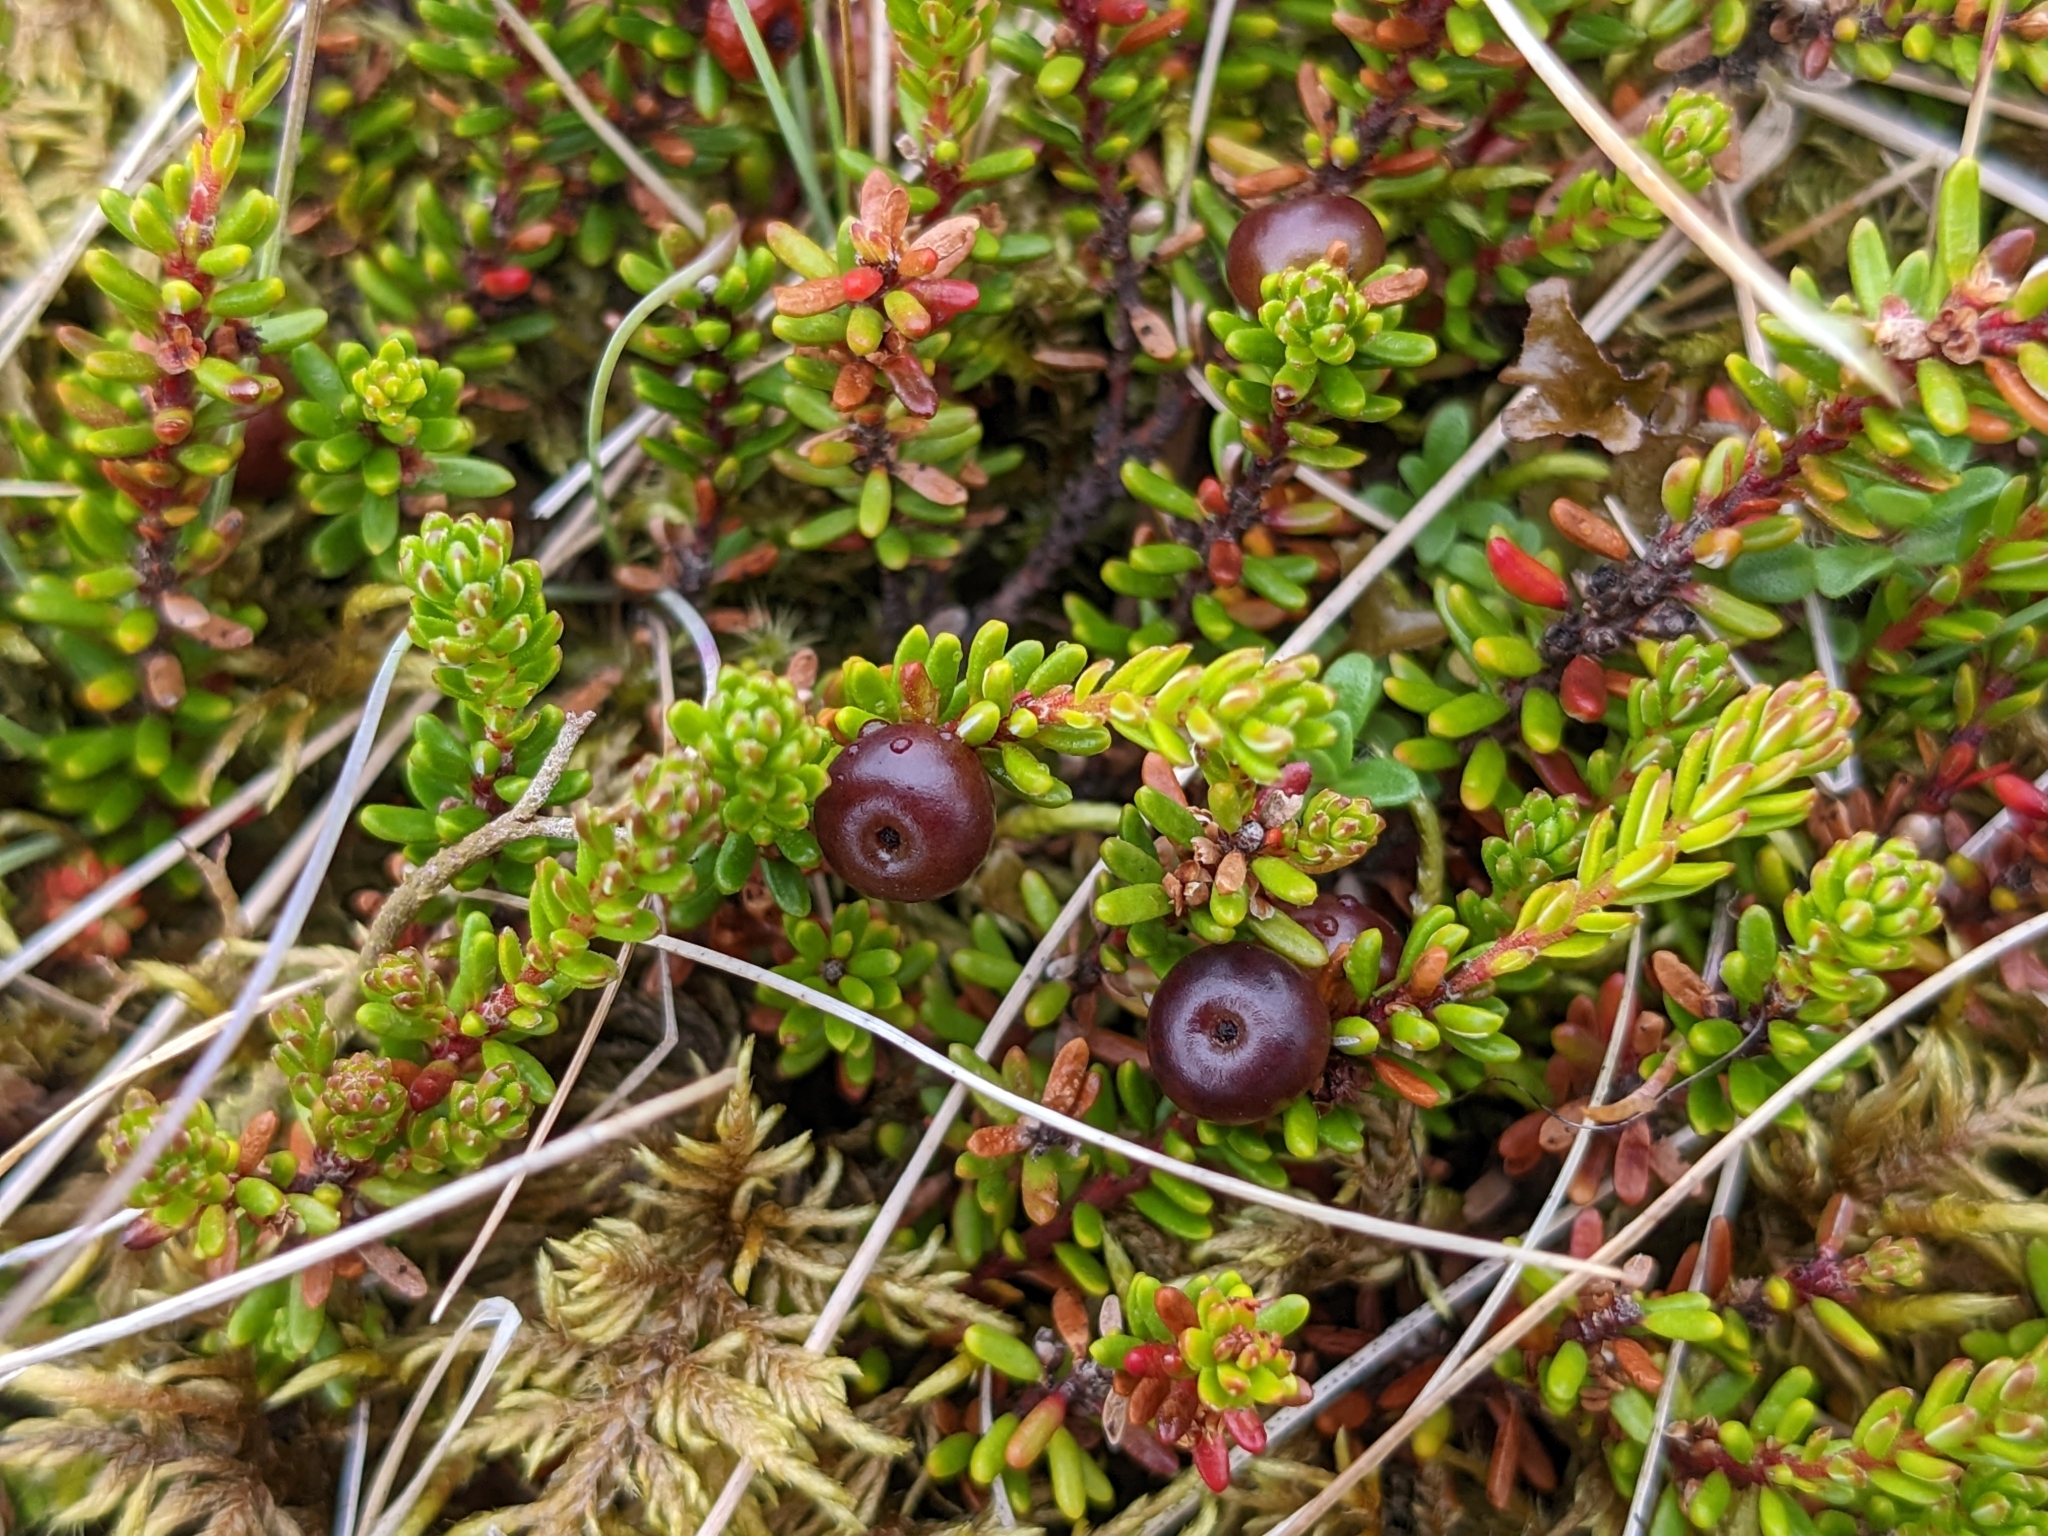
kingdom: Plantae
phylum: Tracheophyta
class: Magnoliopsida
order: Ericales
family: Ericaceae
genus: Empetrum
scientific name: Empetrum nigrum
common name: Black crowberry
